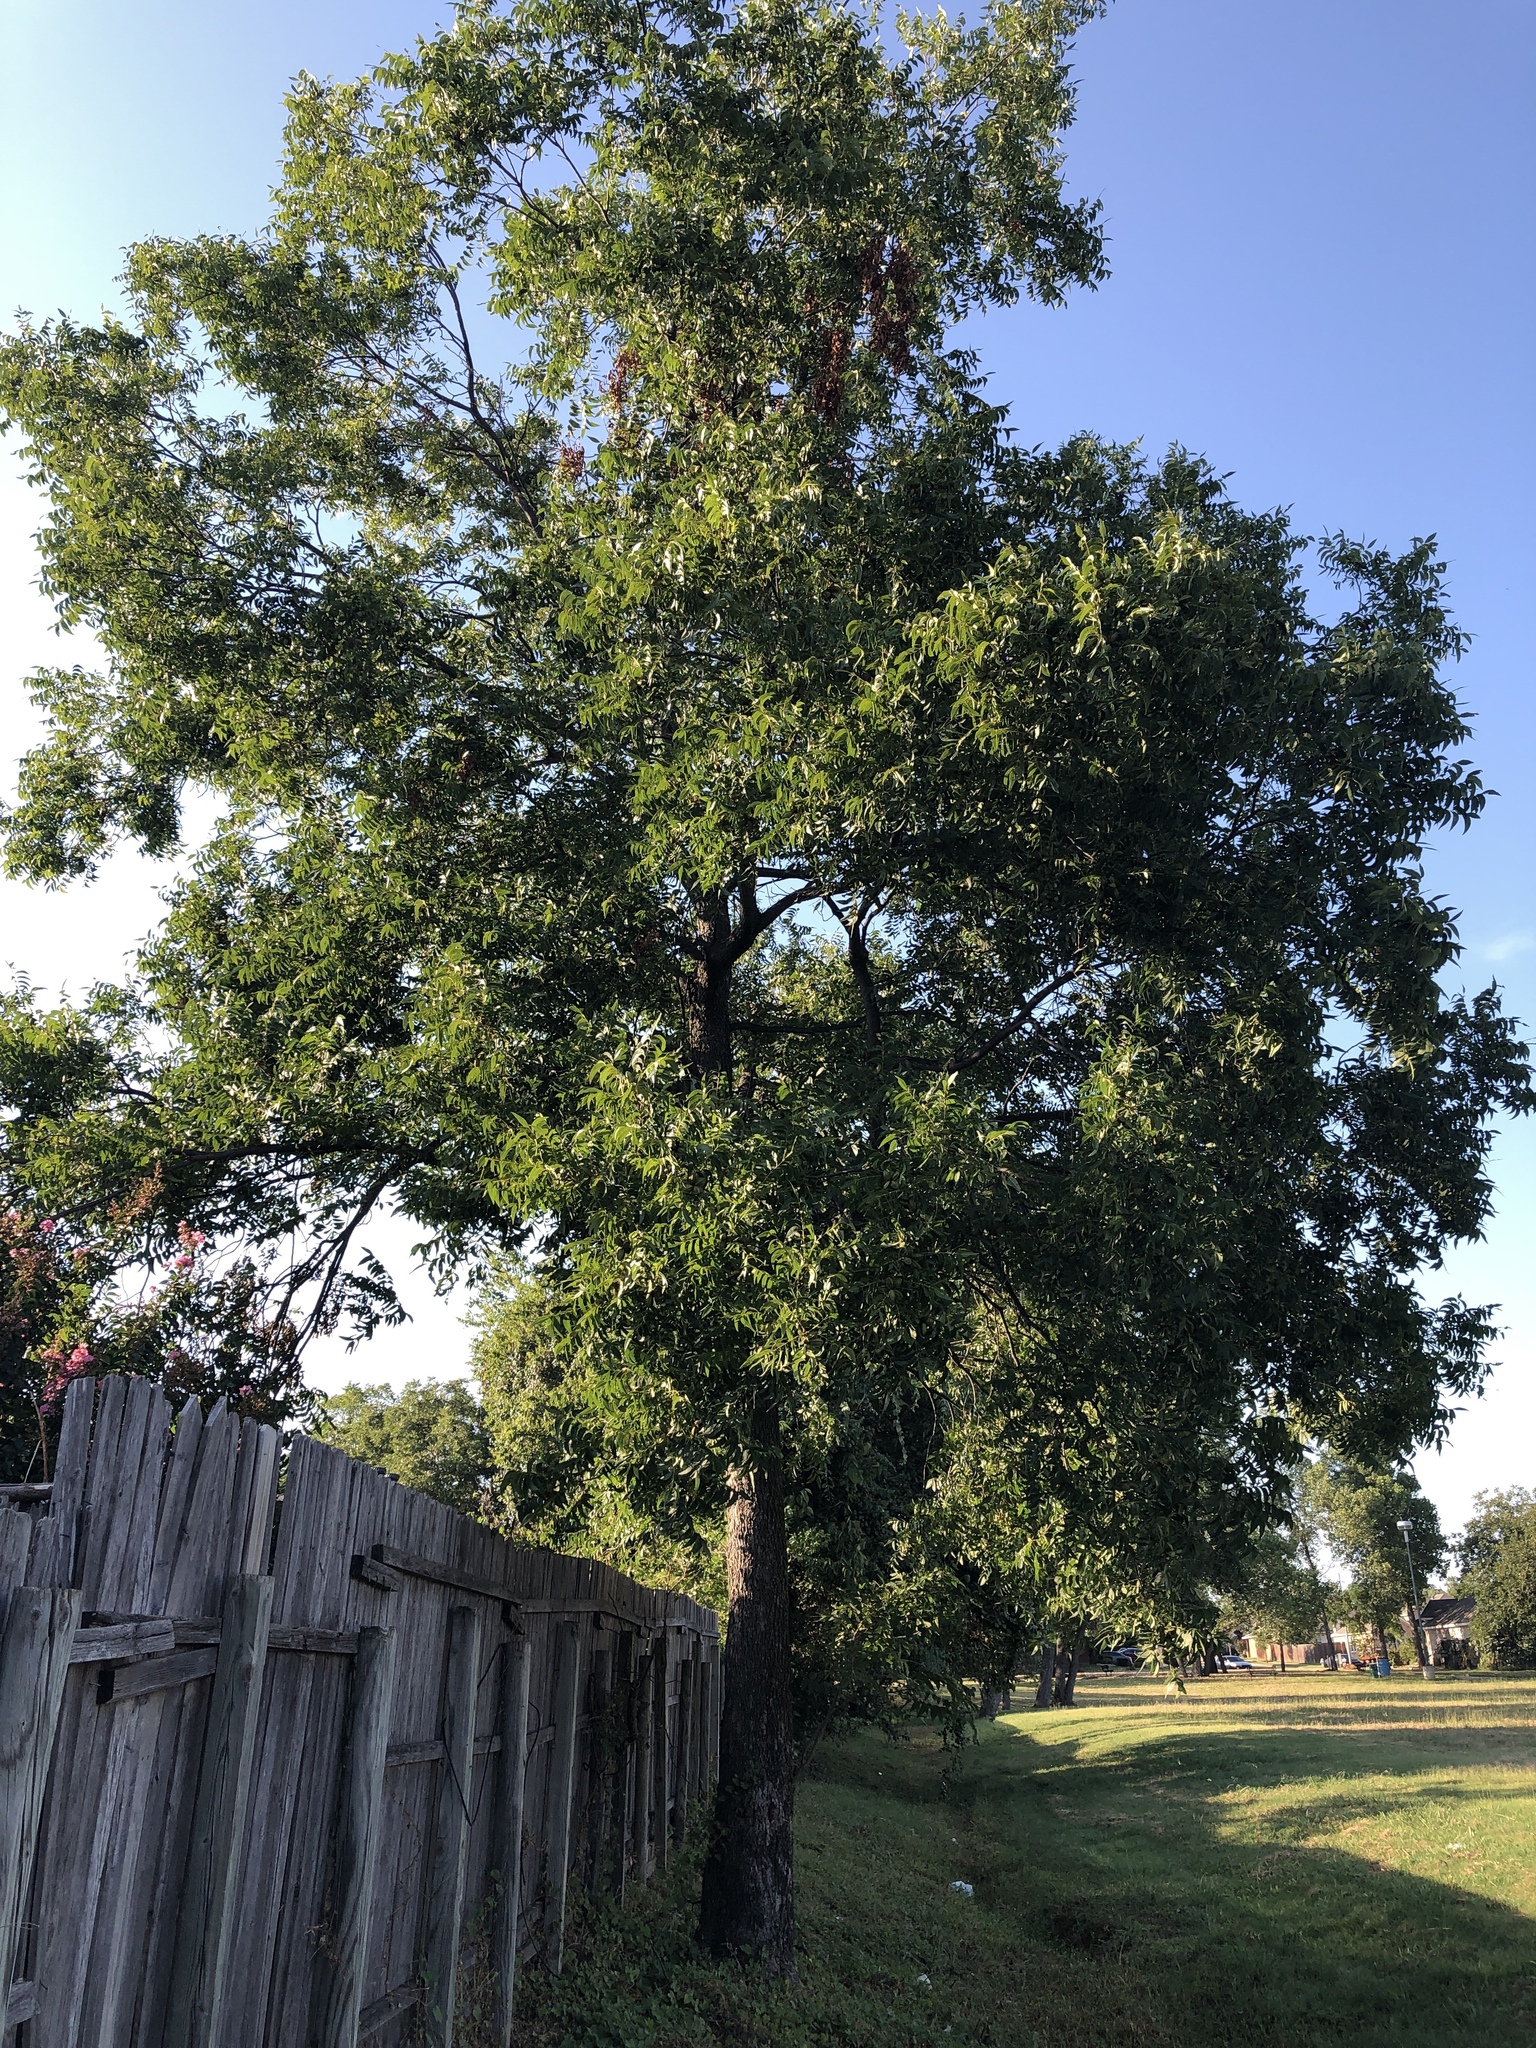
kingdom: Plantae
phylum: Tracheophyta
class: Magnoliopsida
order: Fagales
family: Juglandaceae
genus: Carya
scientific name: Carya illinoinensis
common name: Pecan
